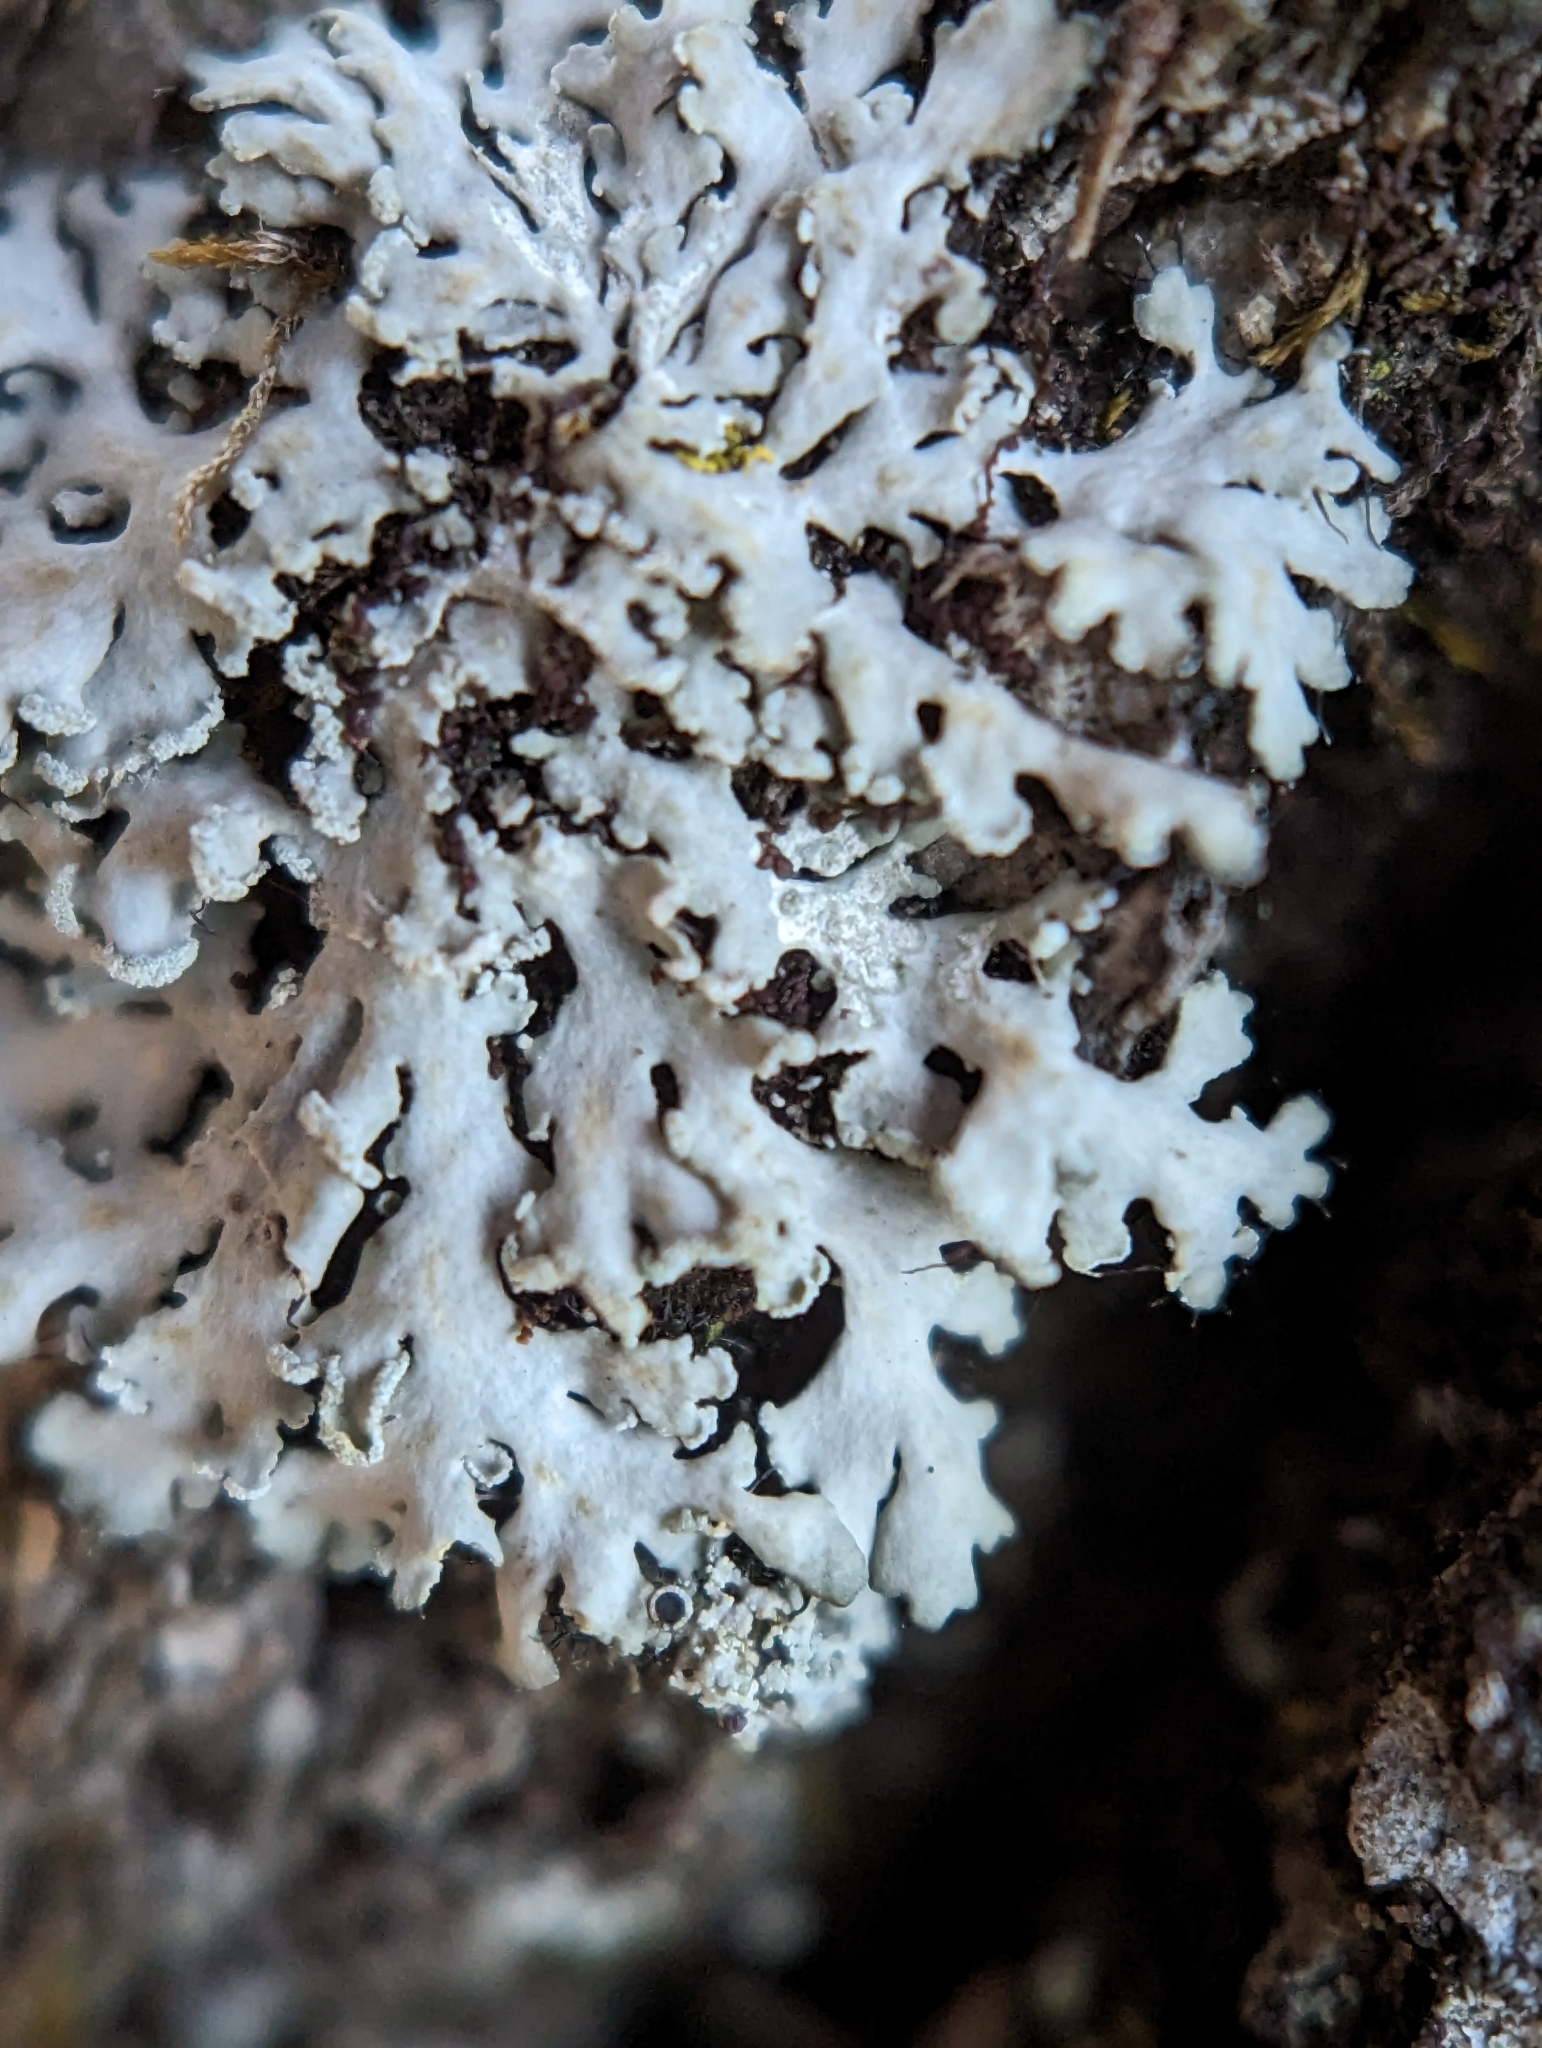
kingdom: Fungi
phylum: Ascomycota
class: Lecanoromycetes
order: Caliciales
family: Physciaceae
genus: Heterodermia
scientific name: Heterodermia speciosa
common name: Powdered fringe lichen
